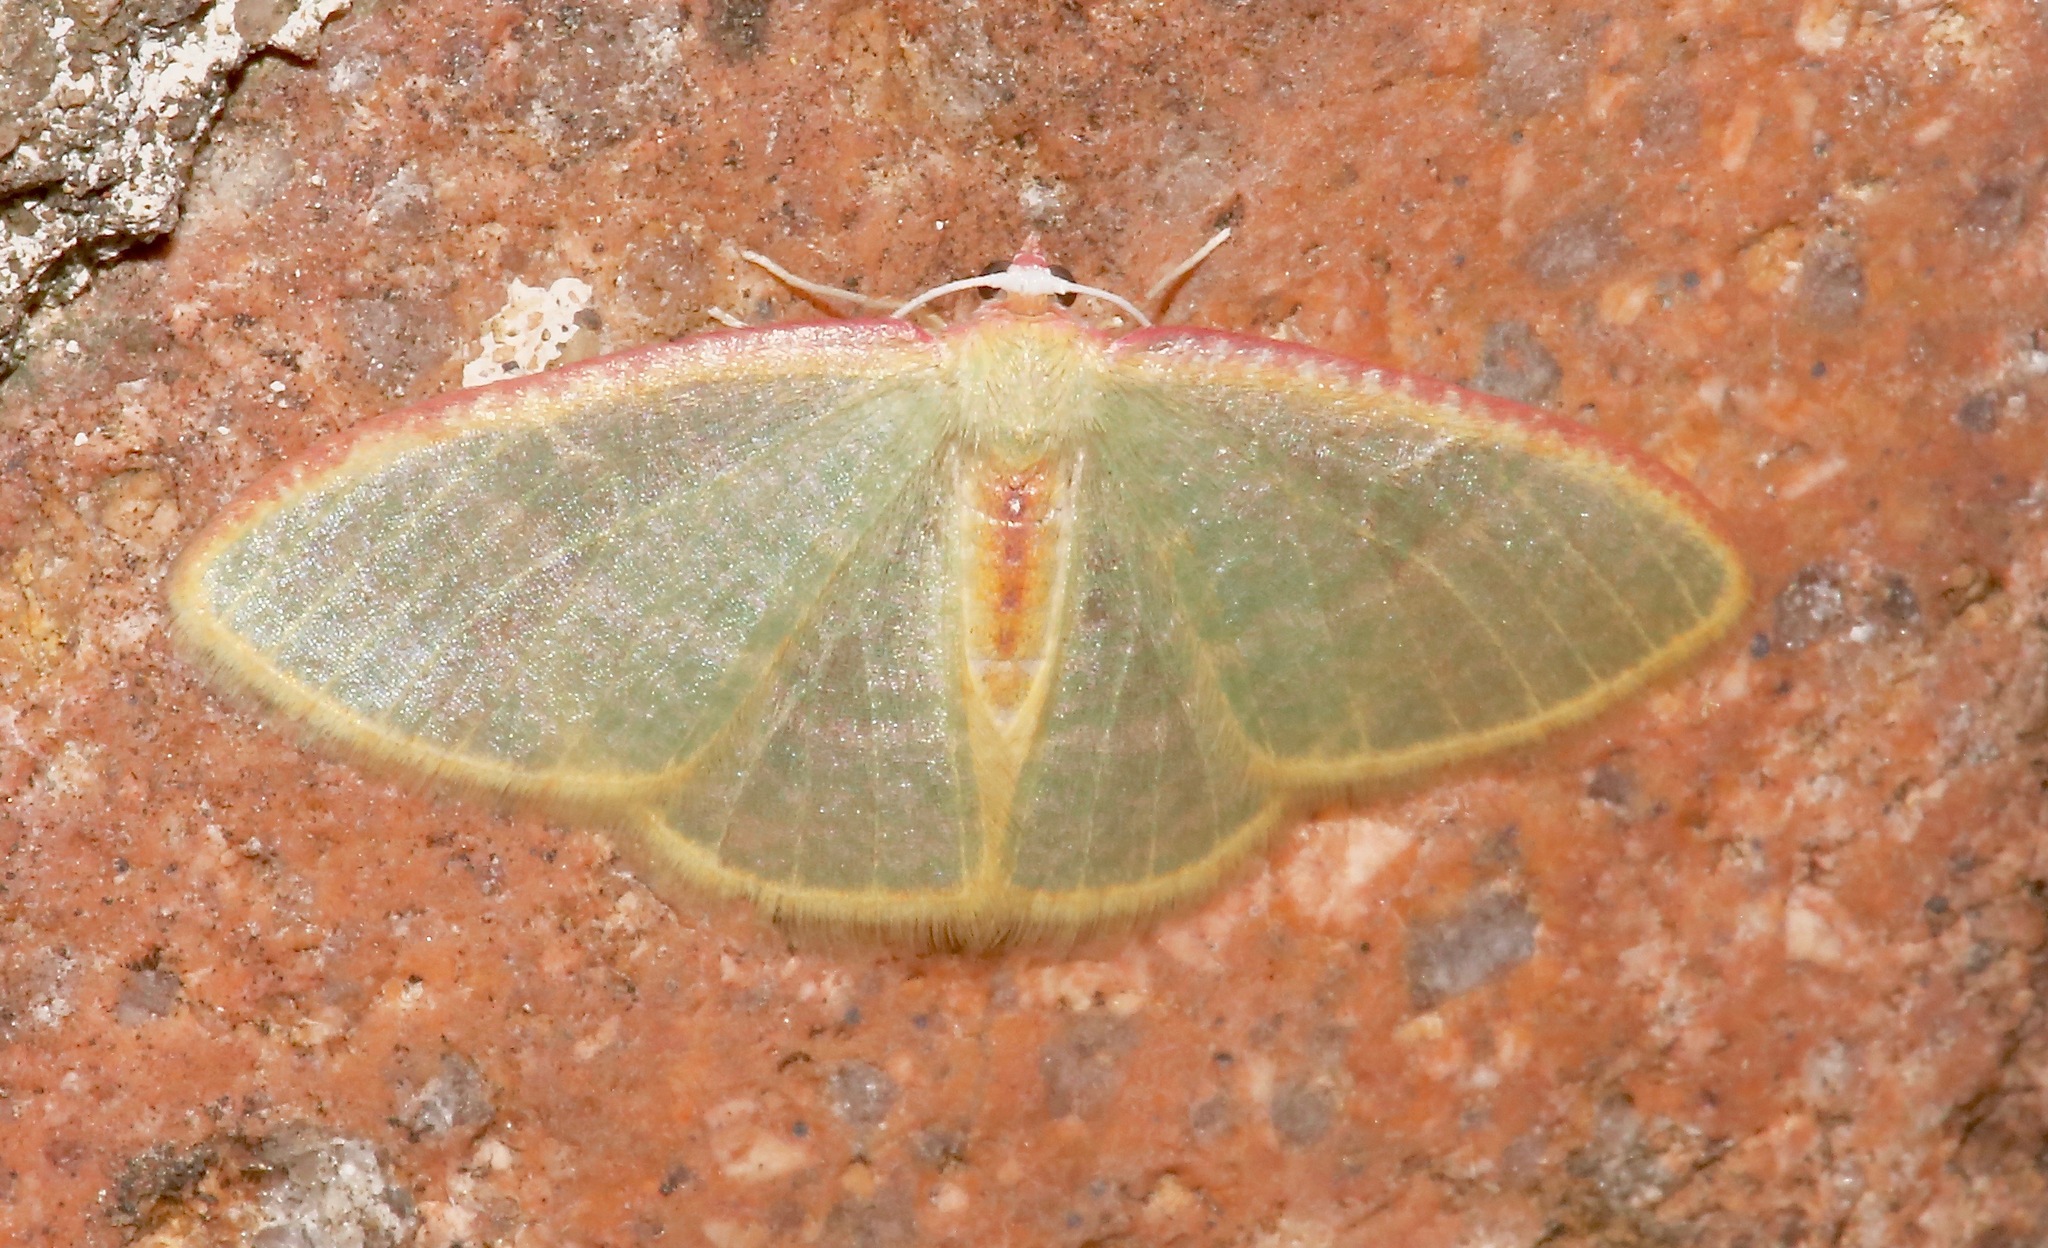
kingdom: Animalia
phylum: Arthropoda
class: Insecta
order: Lepidoptera
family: Geometridae
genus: Nemoria
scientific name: Nemoria daedalea
